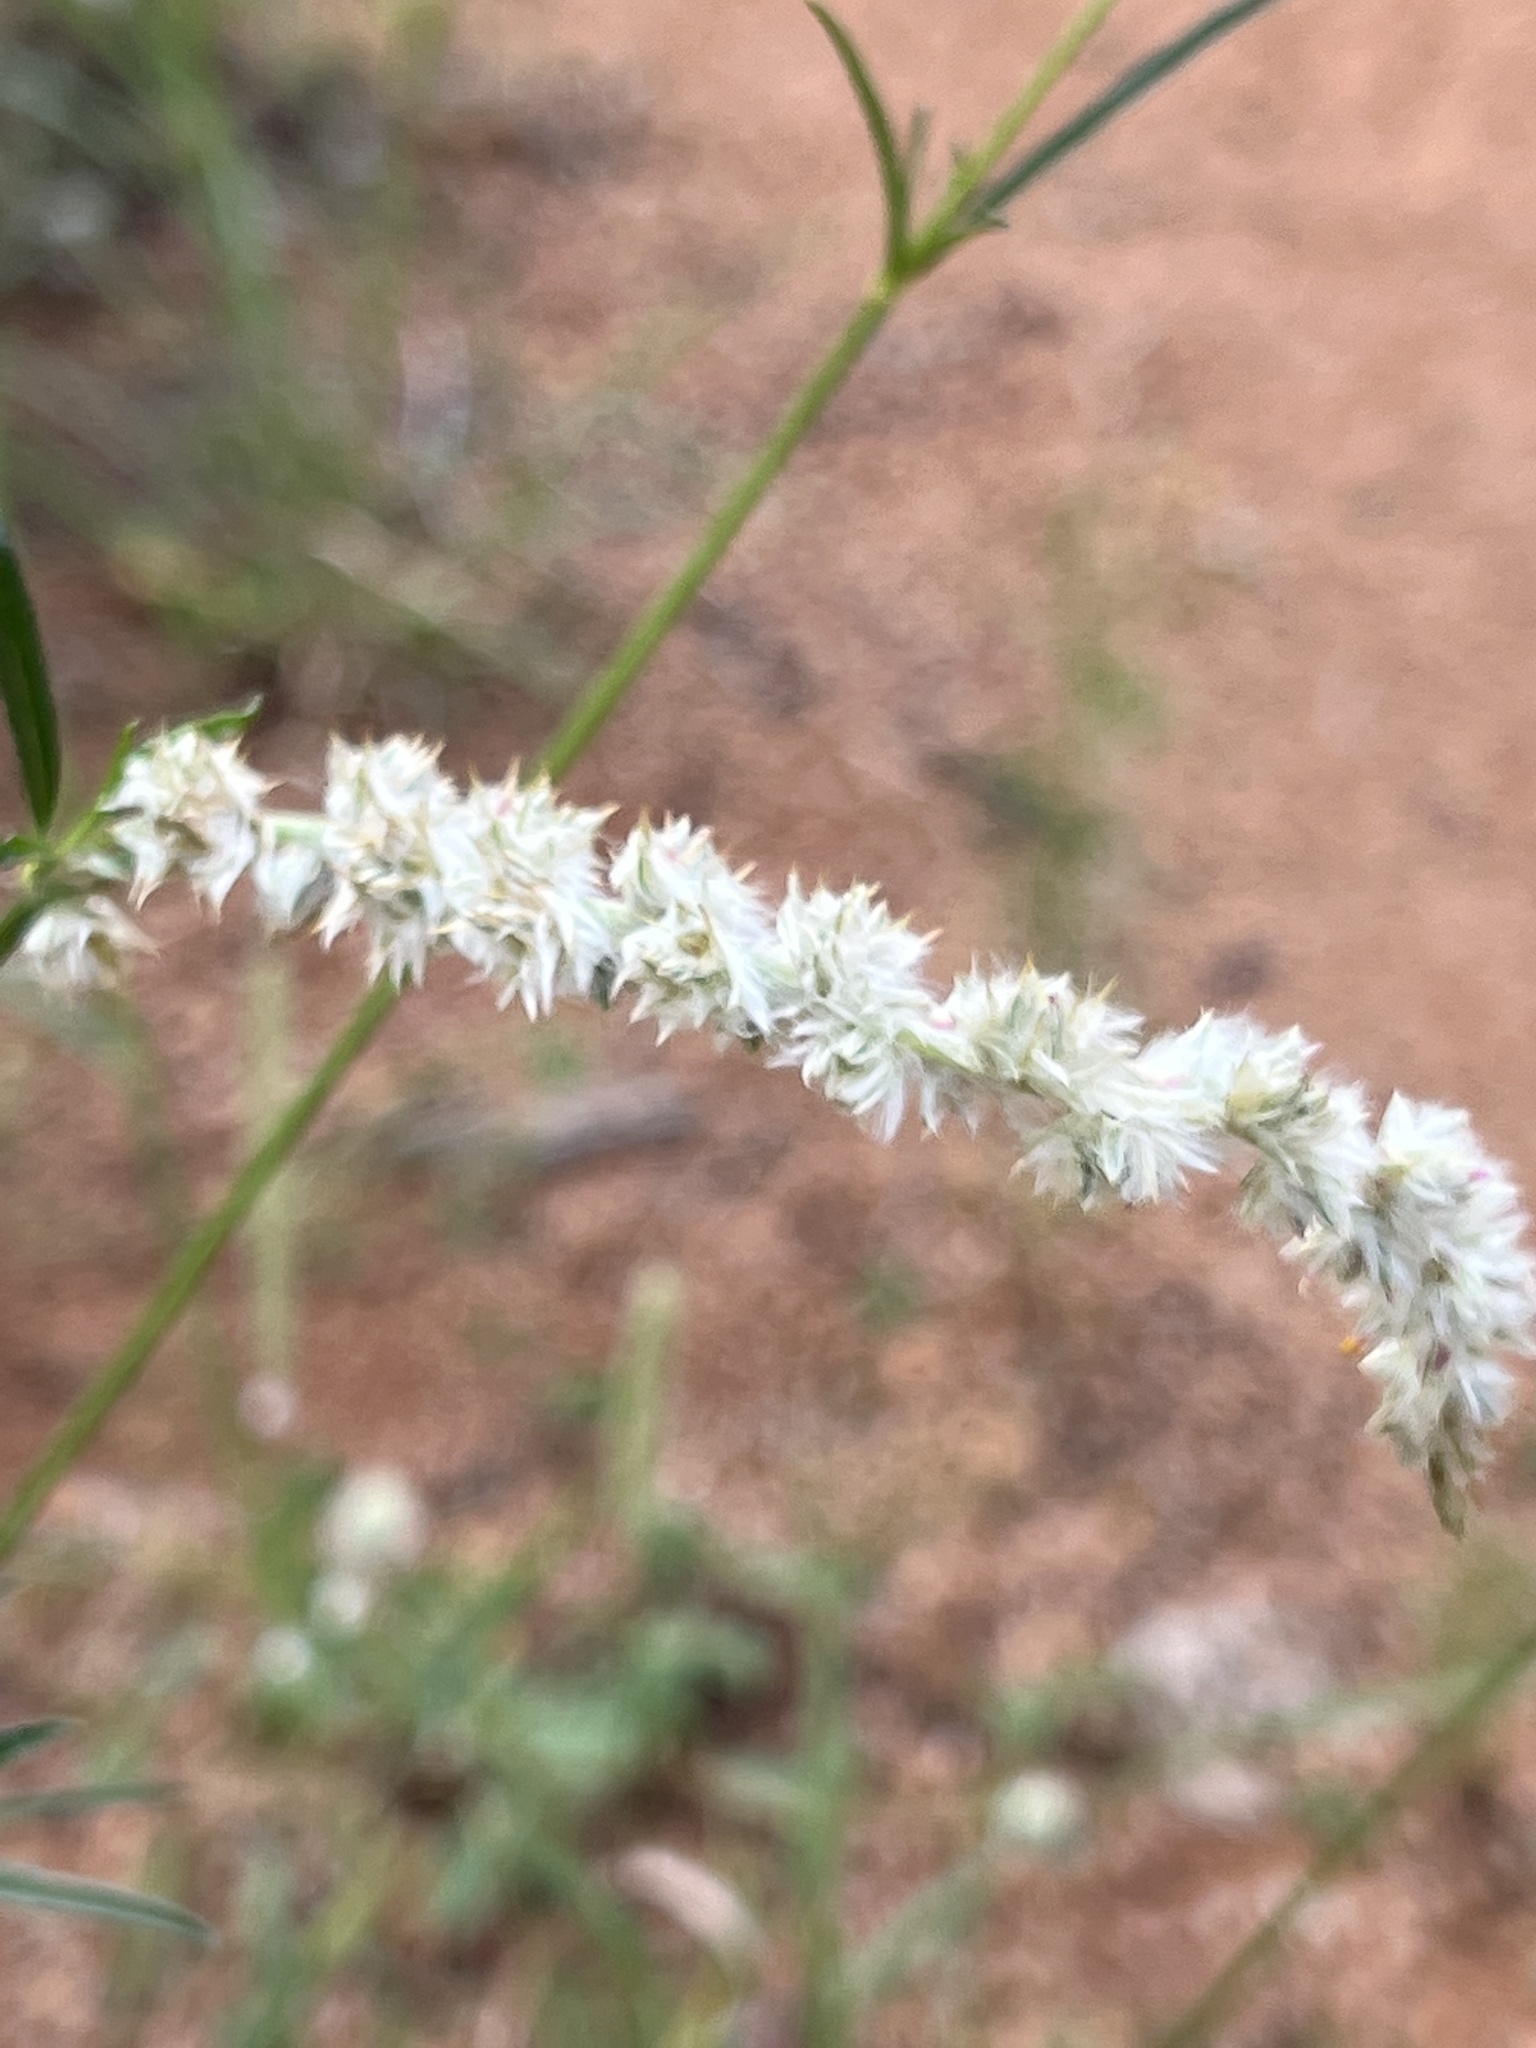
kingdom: Plantae
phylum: Tracheophyta
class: Magnoliopsida
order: Caryophyllales
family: Amaranthaceae
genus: Cyphocarpa
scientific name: Cyphocarpa angustifolia
